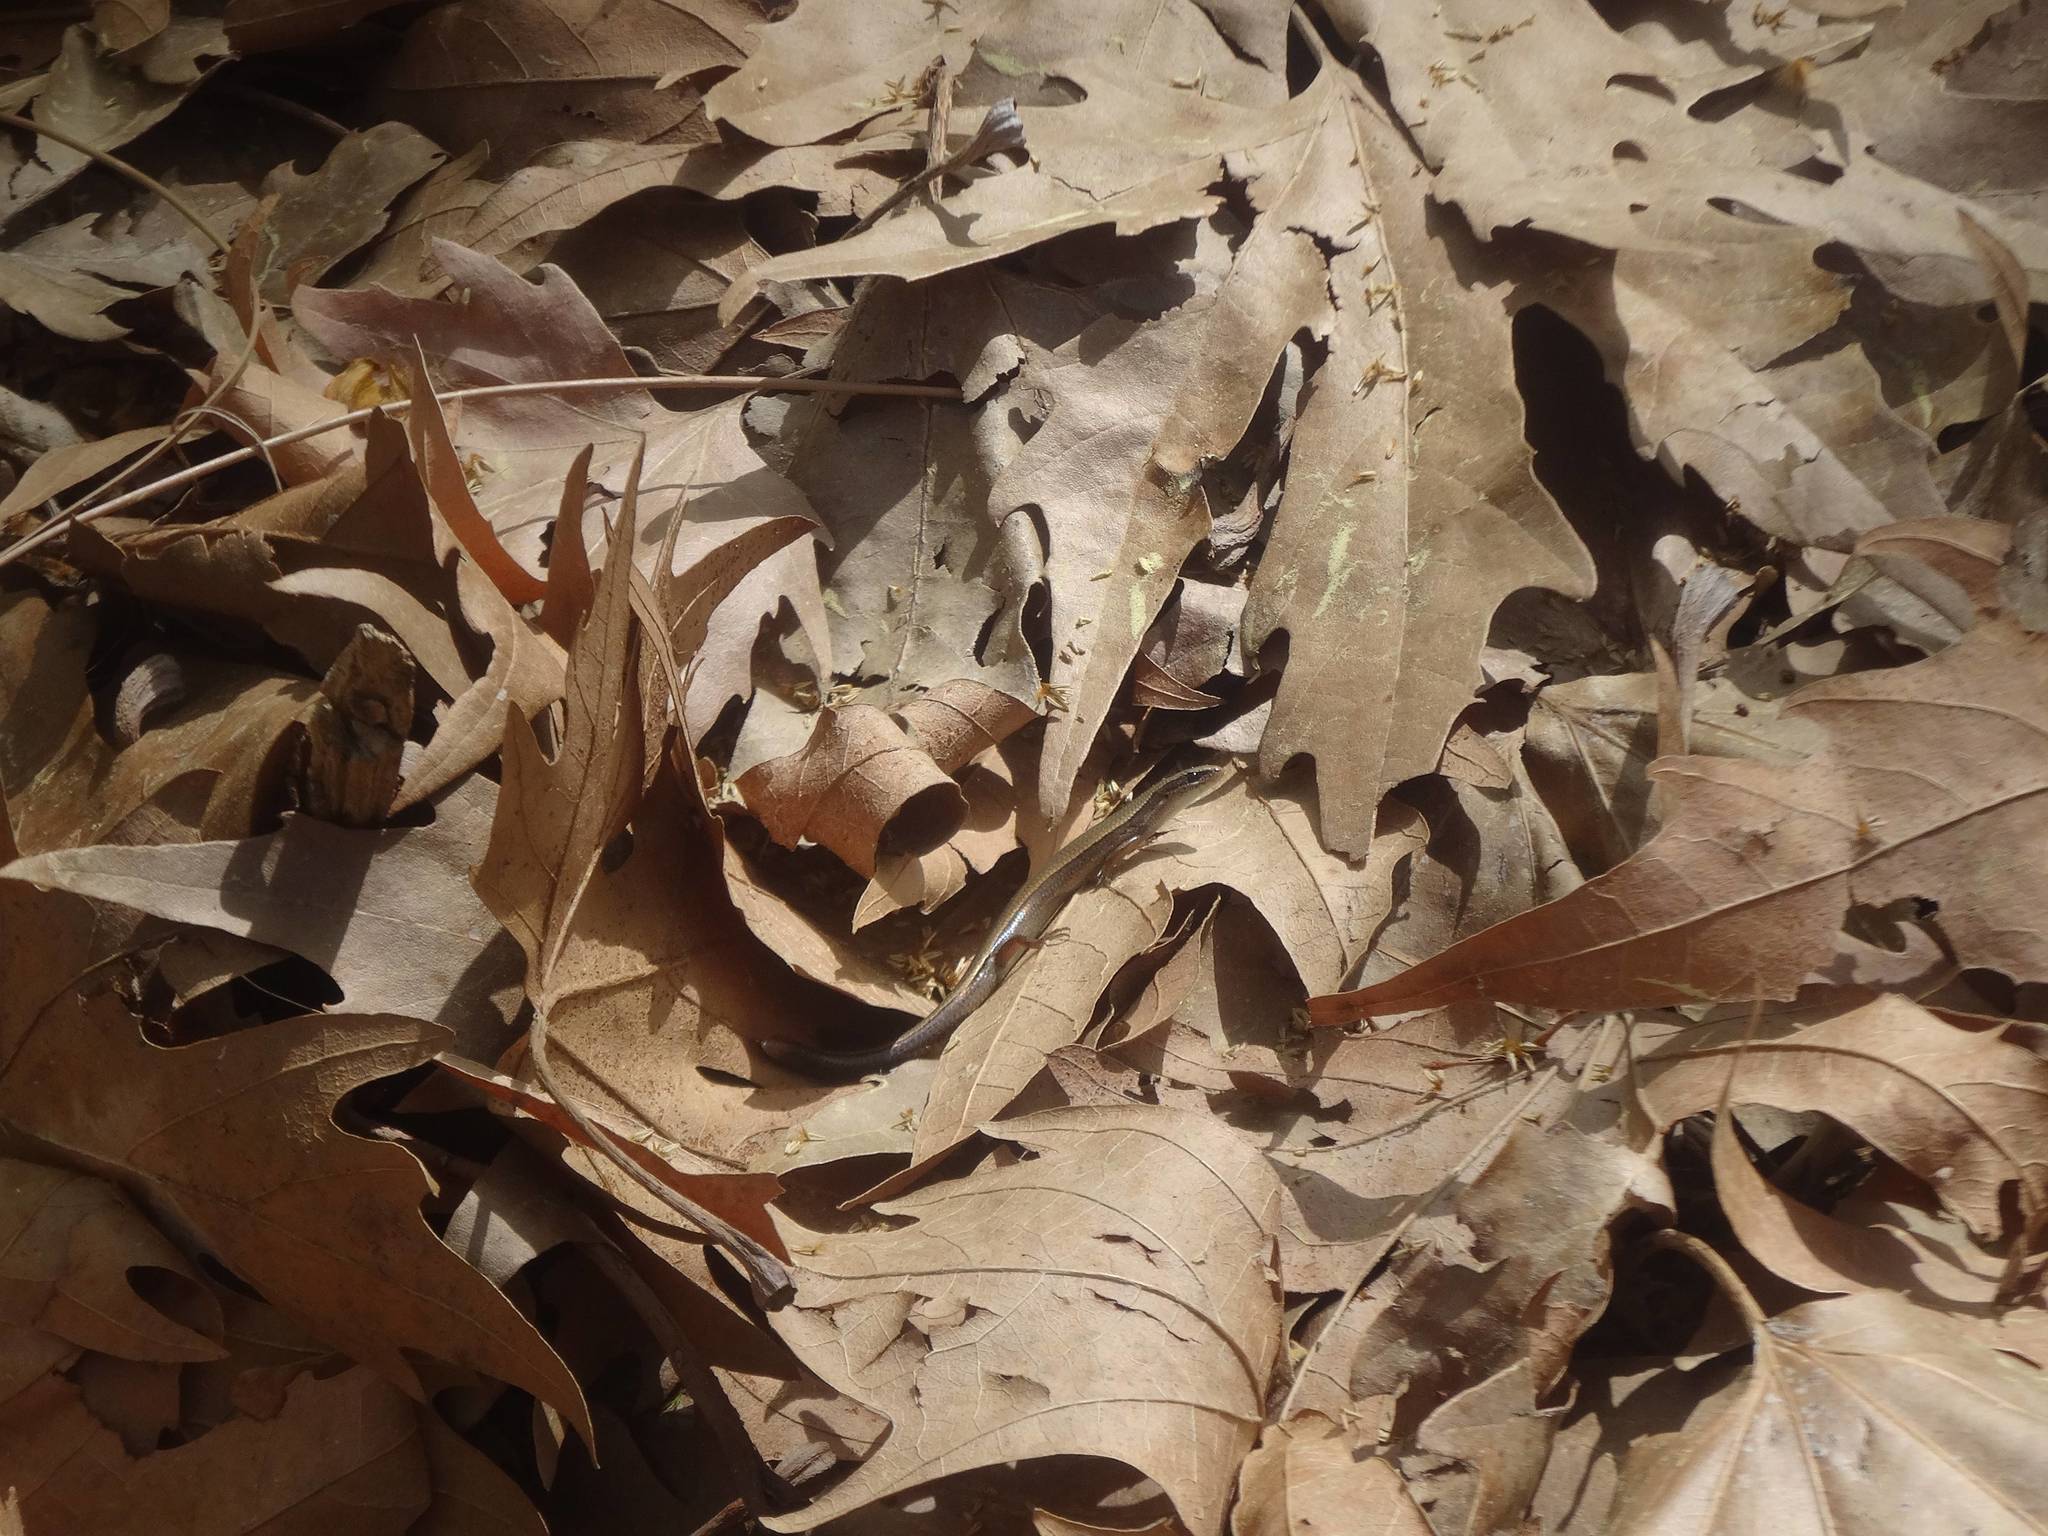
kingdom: Animalia
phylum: Chordata
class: Squamata
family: Scincidae
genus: Ablepharus
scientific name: Ablepharus anatolicus
